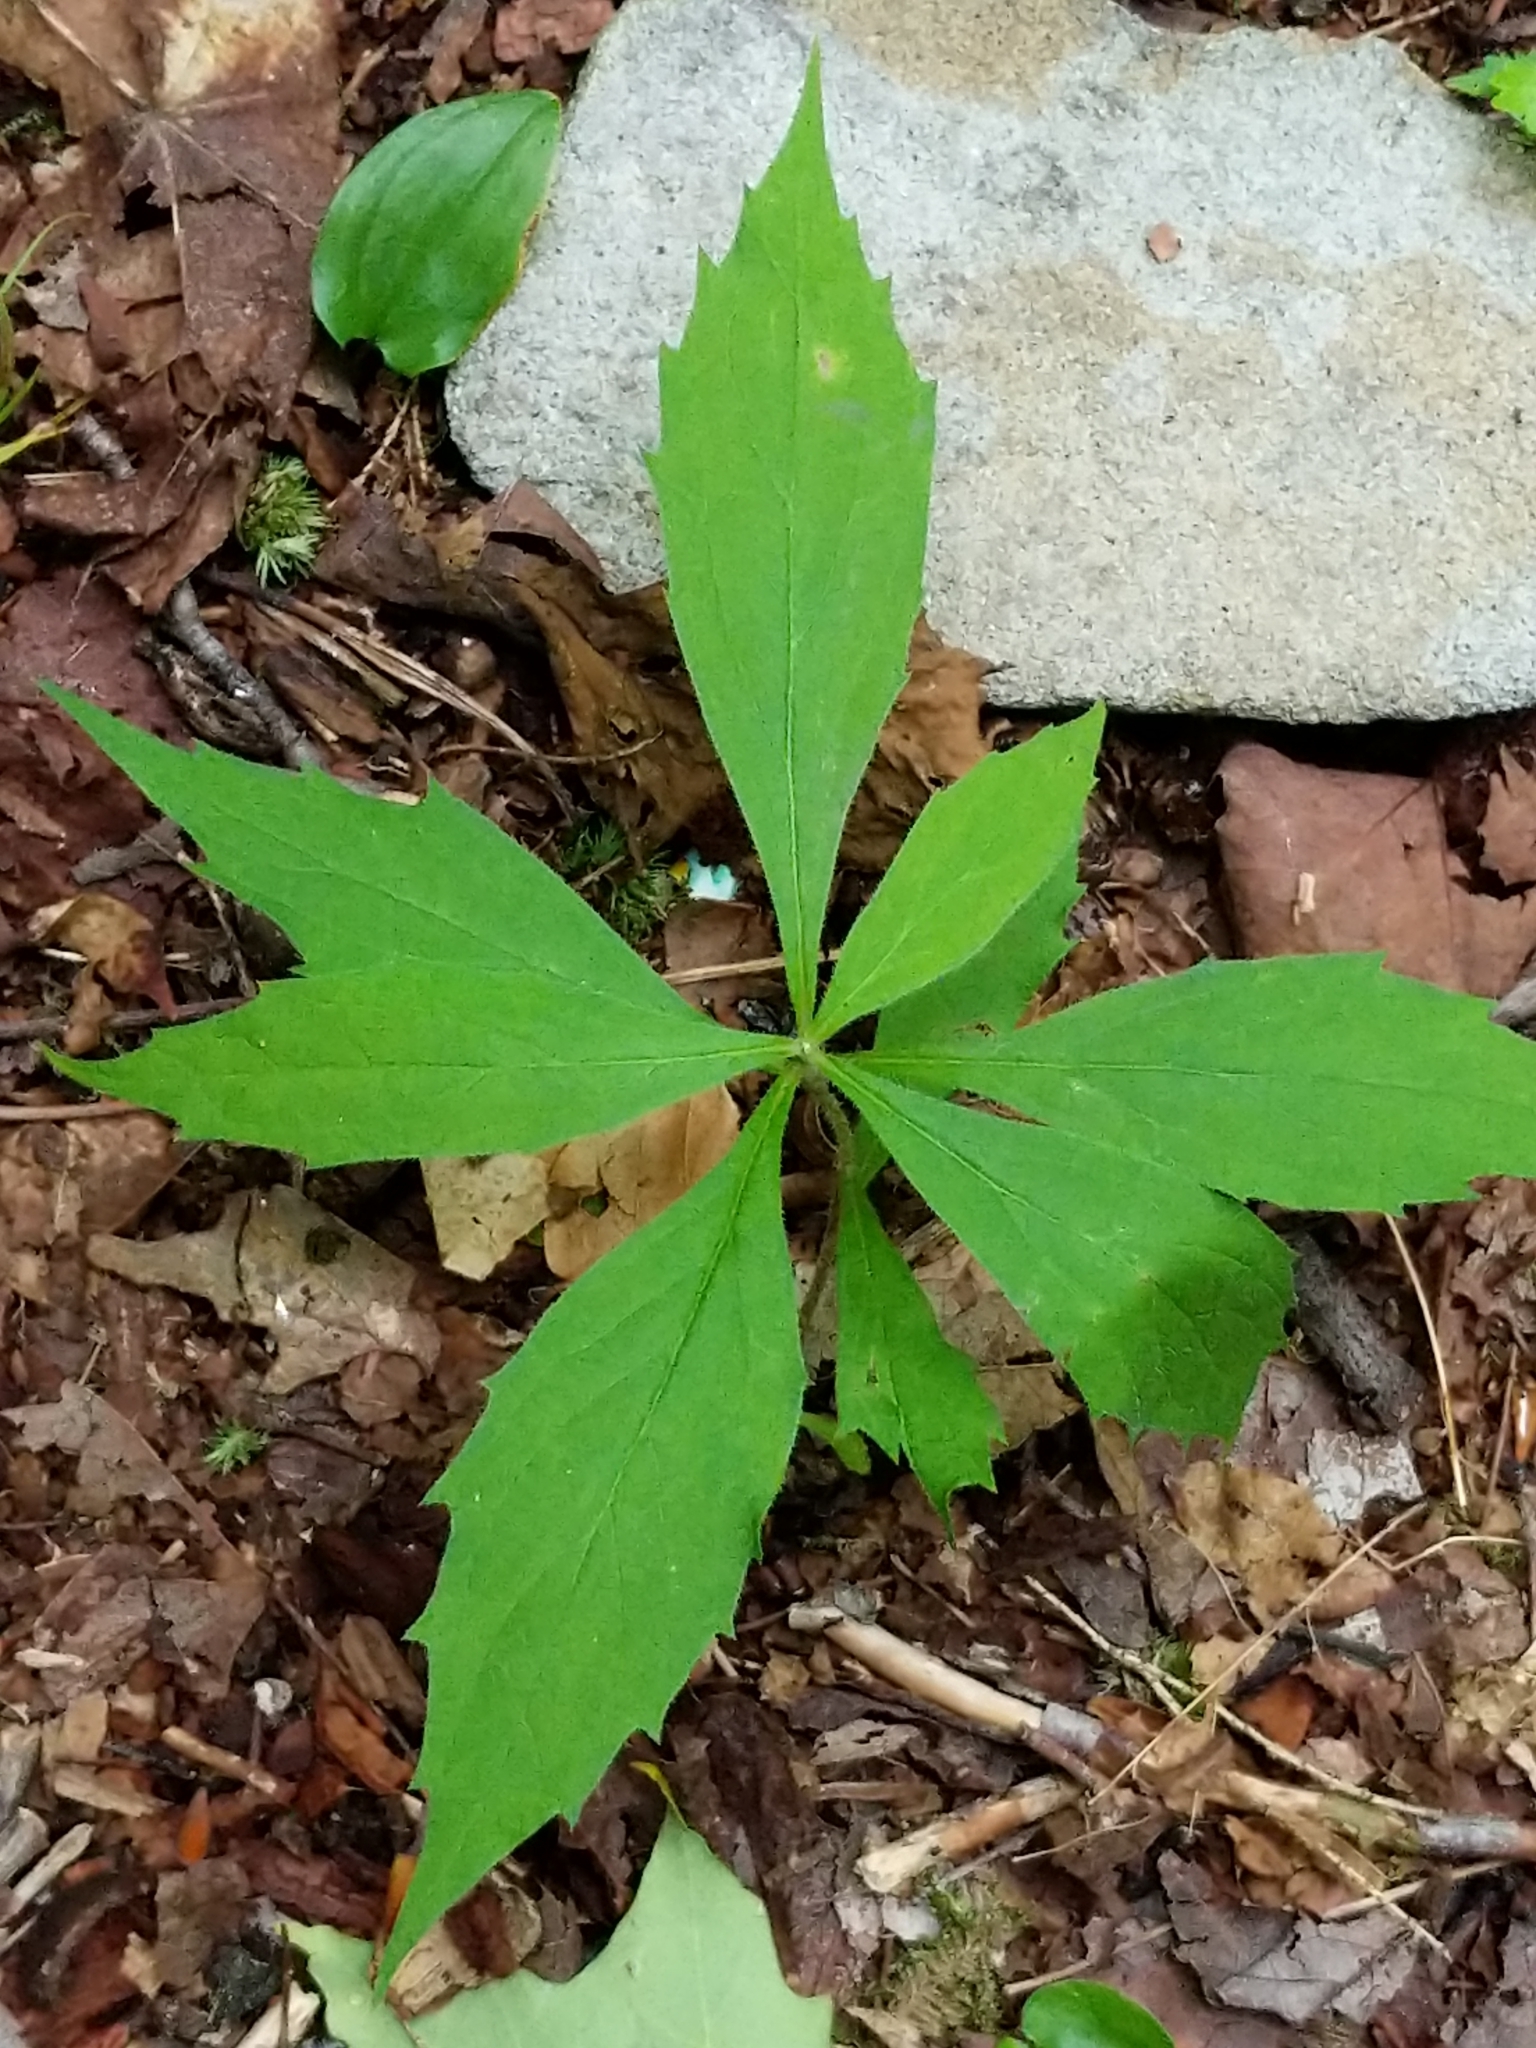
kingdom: Plantae
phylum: Tracheophyta
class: Magnoliopsida
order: Asterales
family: Asteraceae
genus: Oclemena
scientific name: Oclemena acuminata
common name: Mountain aster
